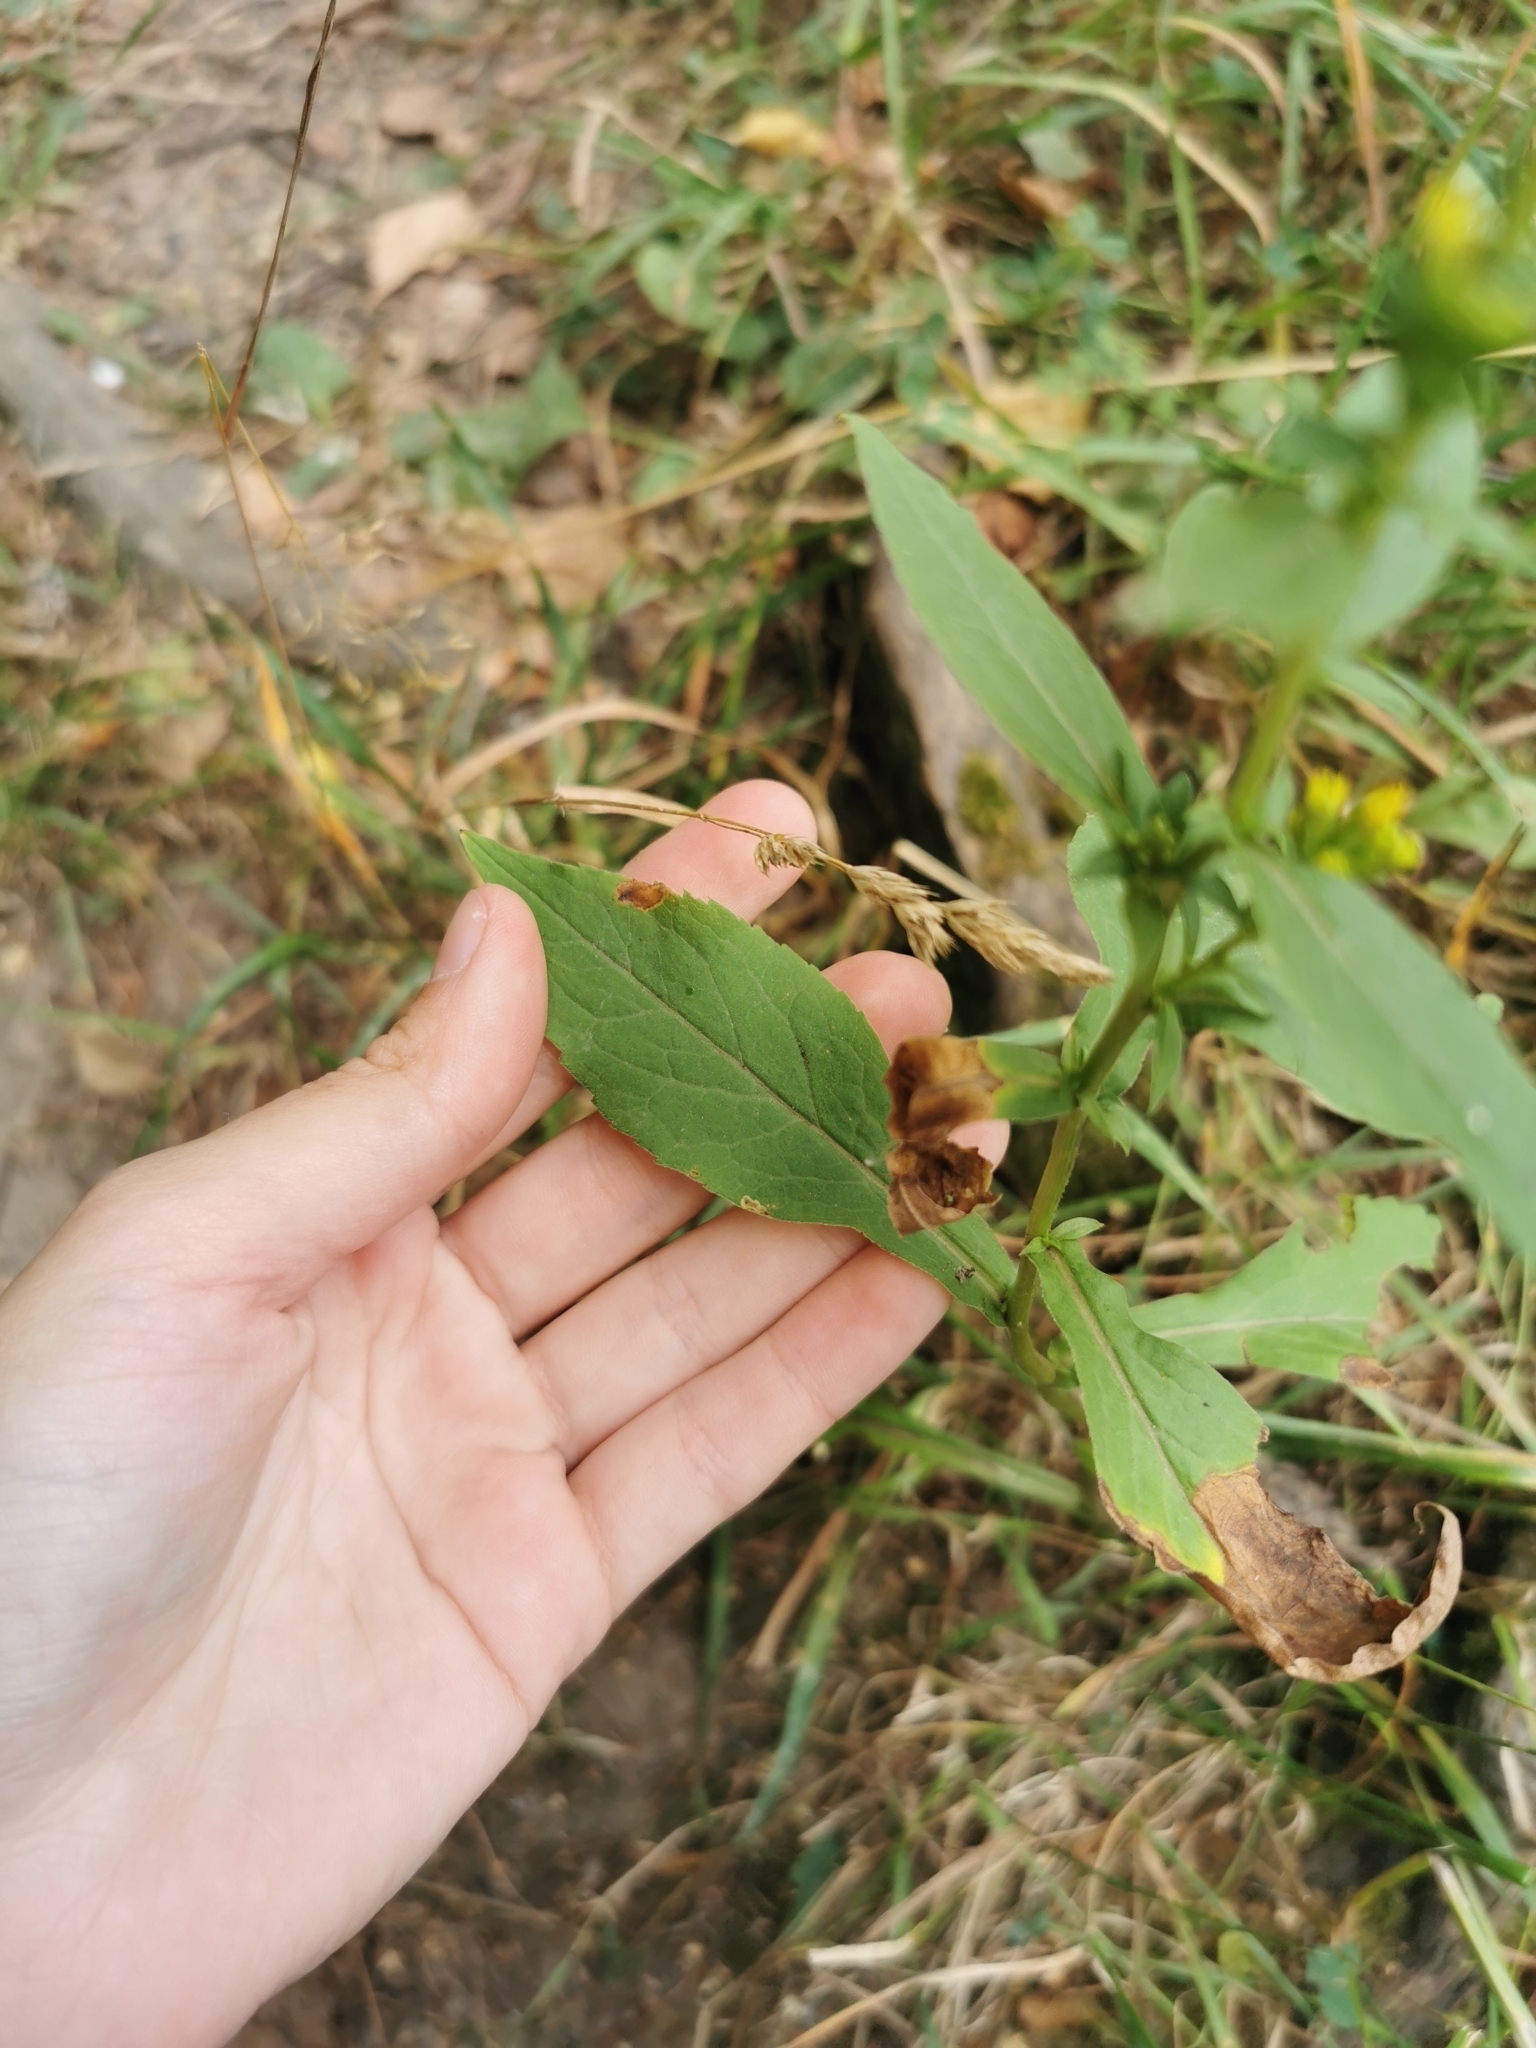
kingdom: Plantae
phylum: Tracheophyta
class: Magnoliopsida
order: Asterales
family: Asteraceae
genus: Solidago
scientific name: Solidago virgaurea
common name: Goldenrod
